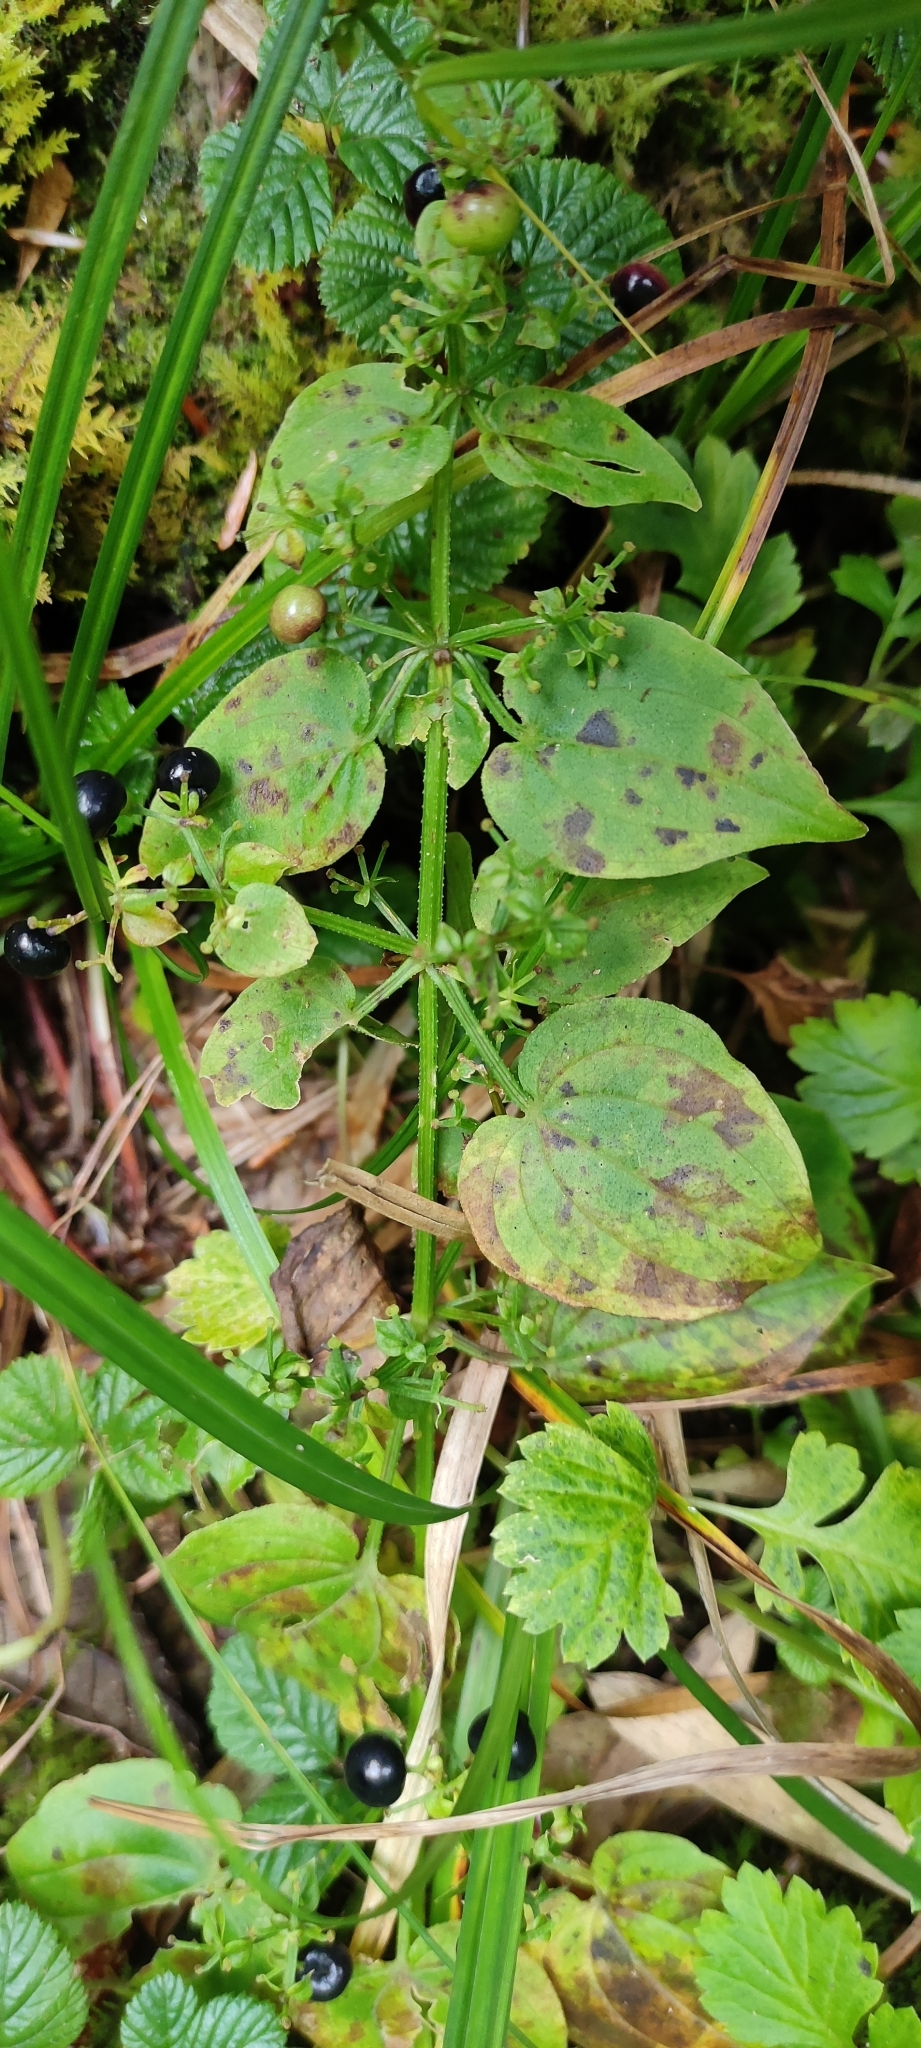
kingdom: Plantae
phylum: Tracheophyta
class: Magnoliopsida
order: Gentianales
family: Rubiaceae
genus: Rubia
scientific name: Rubia cordifolia
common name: Indian madder
